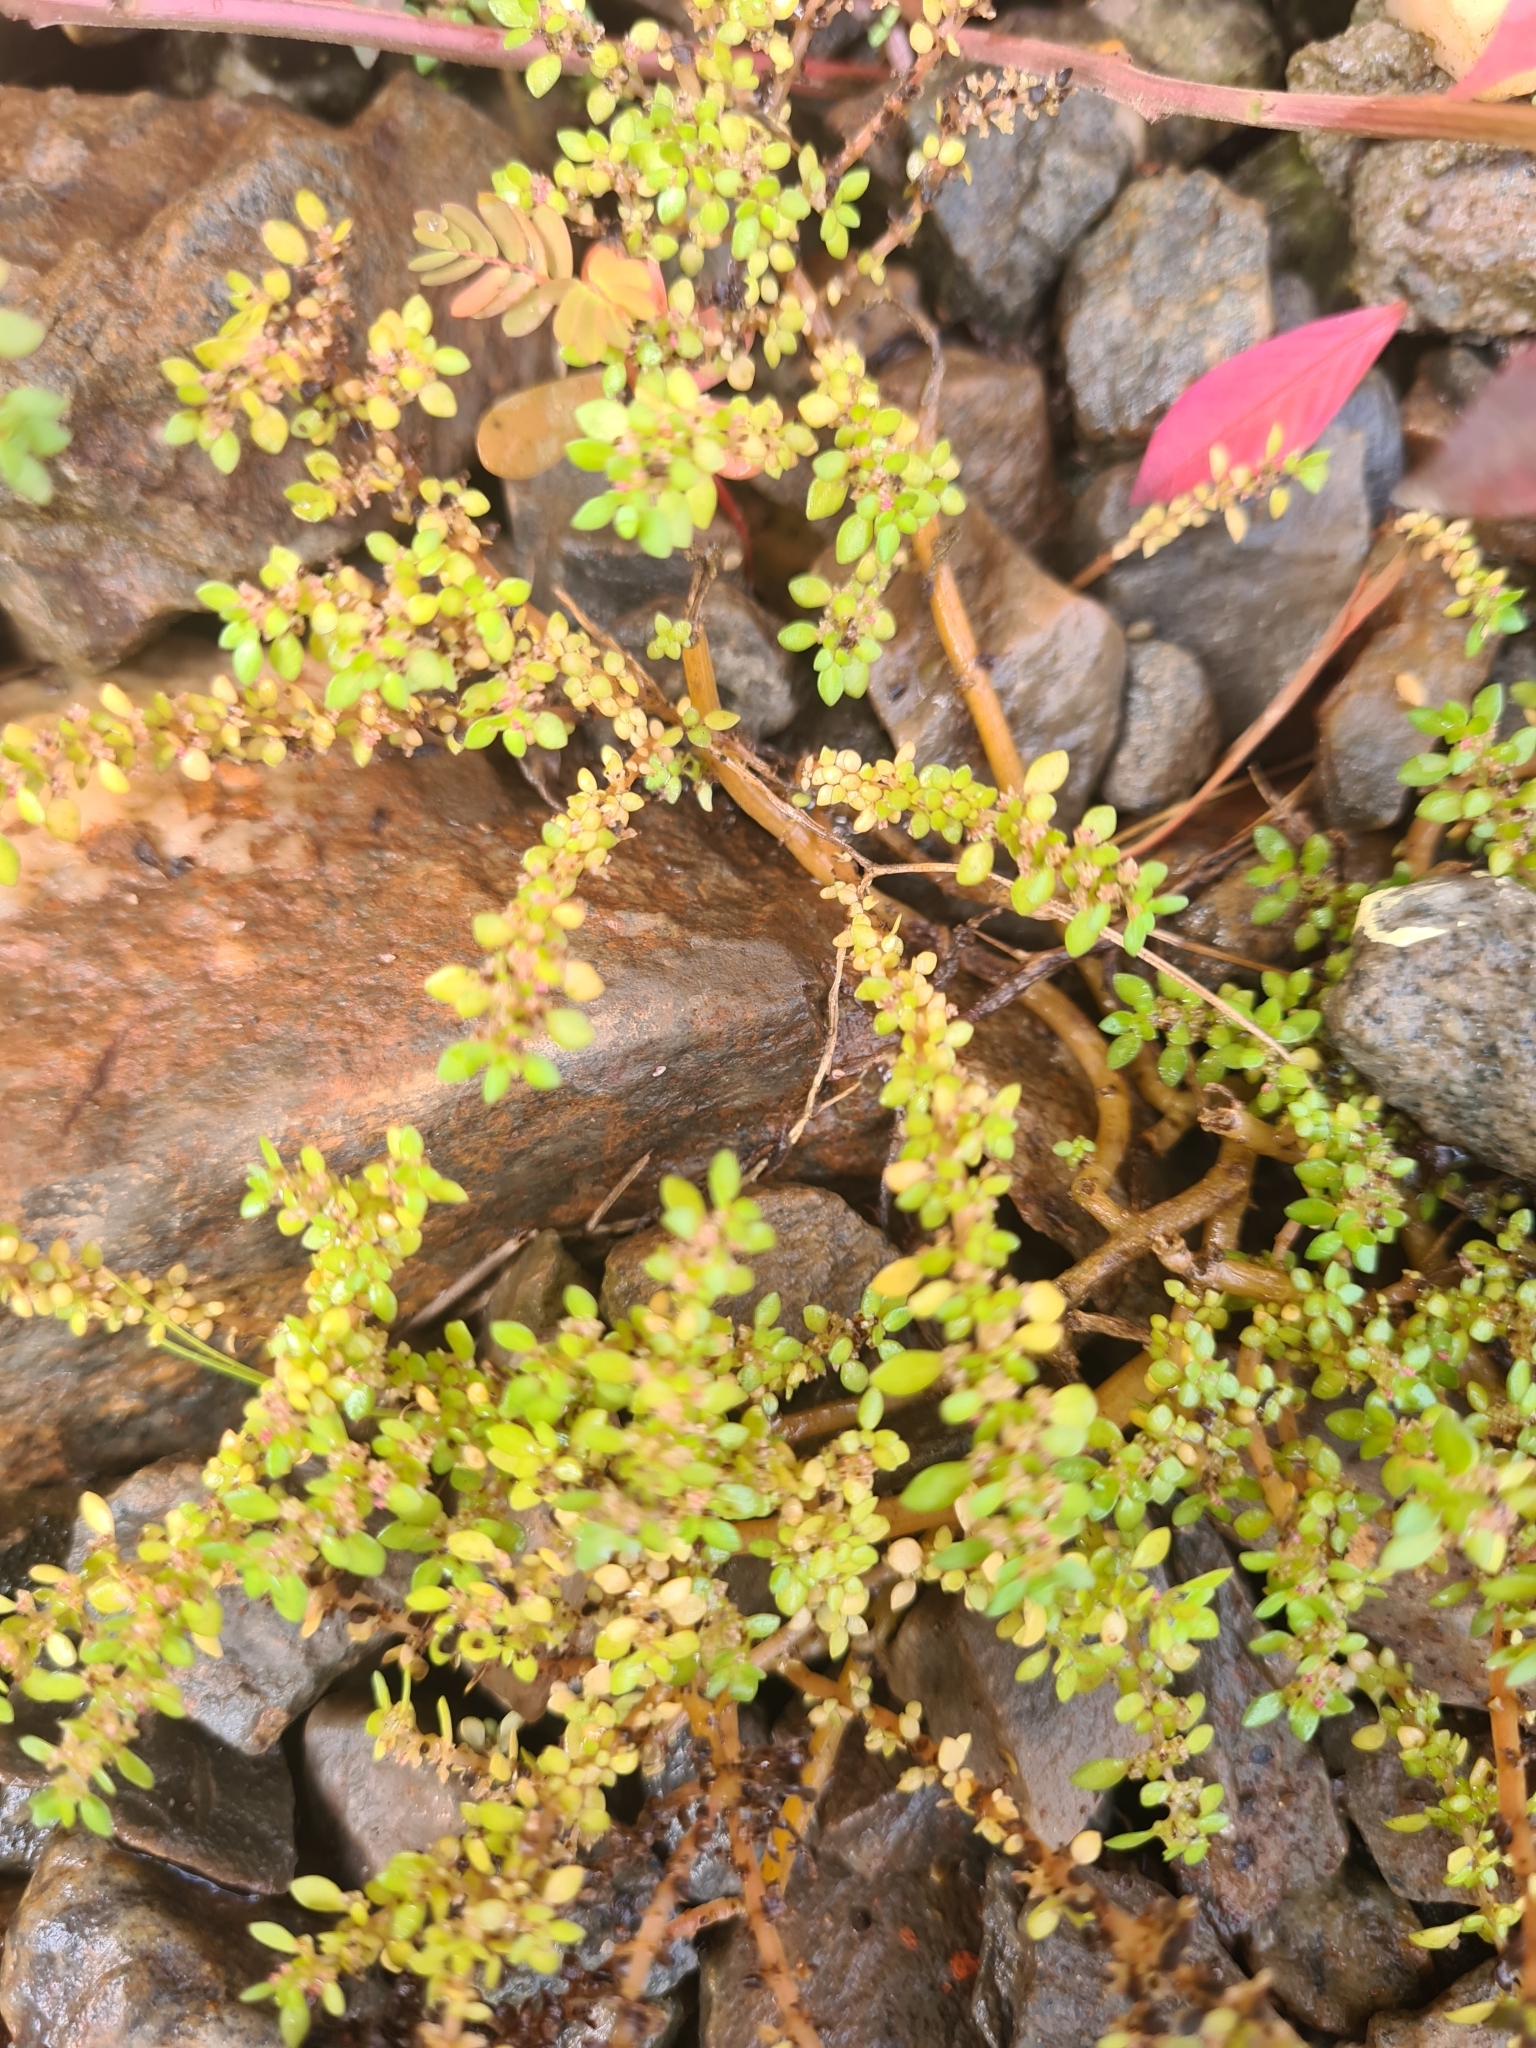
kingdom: Plantae
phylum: Tracheophyta
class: Magnoliopsida
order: Rosales
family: Urticaceae
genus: Pilea
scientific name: Pilea microphylla
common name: Artillery-plant
